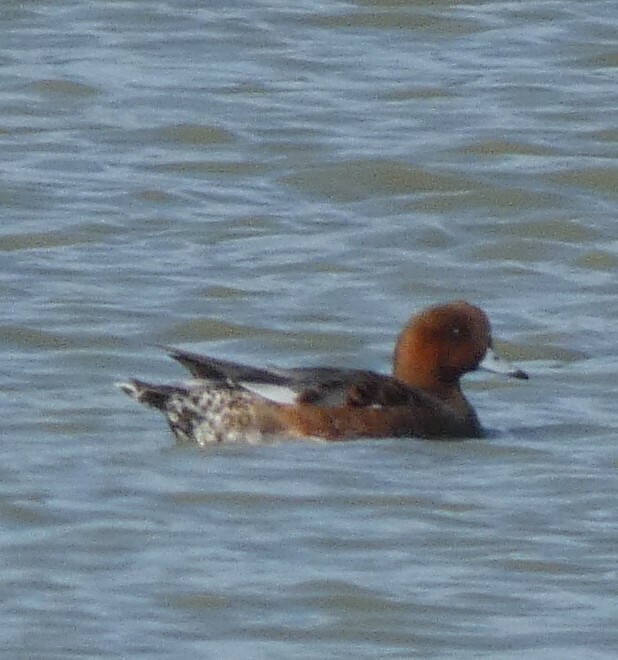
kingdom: Animalia
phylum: Chordata
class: Aves
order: Anseriformes
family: Anatidae
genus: Mareca
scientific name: Mareca penelope
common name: Eurasian wigeon
